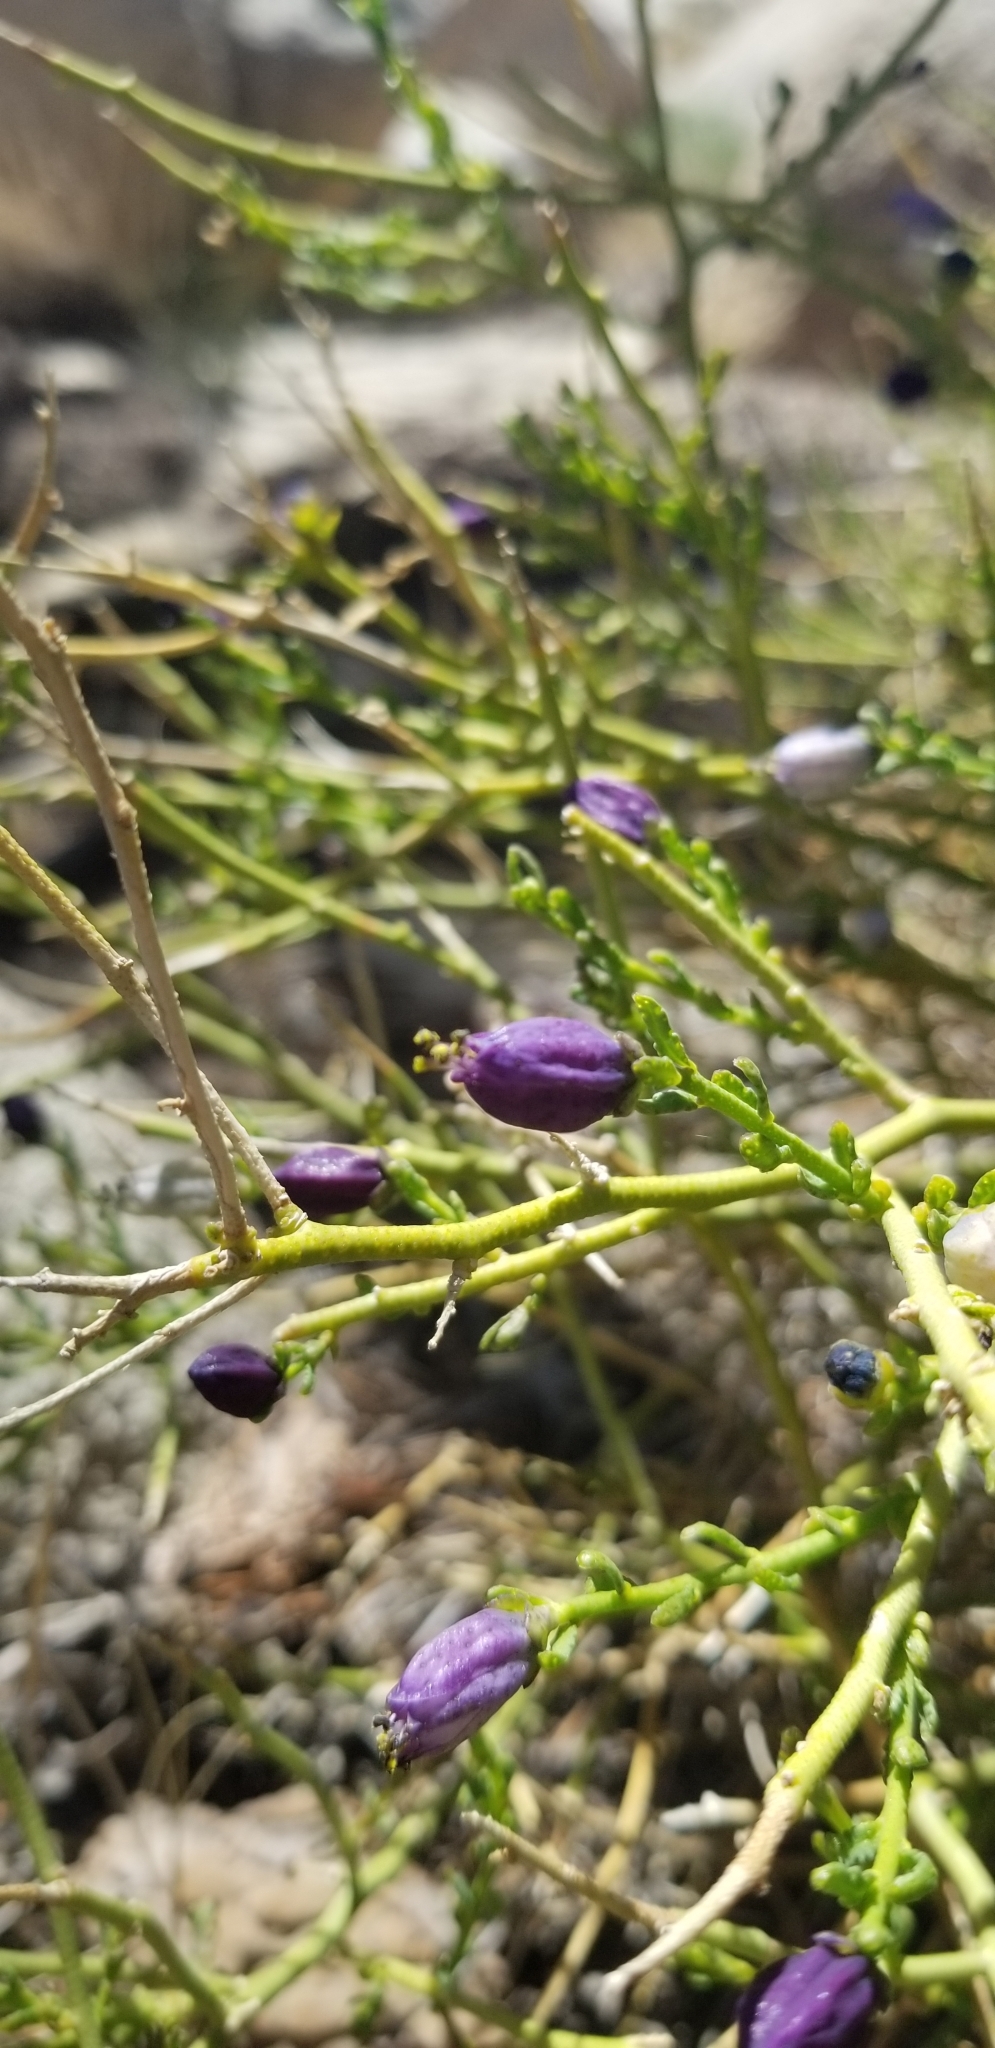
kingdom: Plantae
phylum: Tracheophyta
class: Magnoliopsida
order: Sapindales
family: Rutaceae
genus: Thamnosma
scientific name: Thamnosma montana
